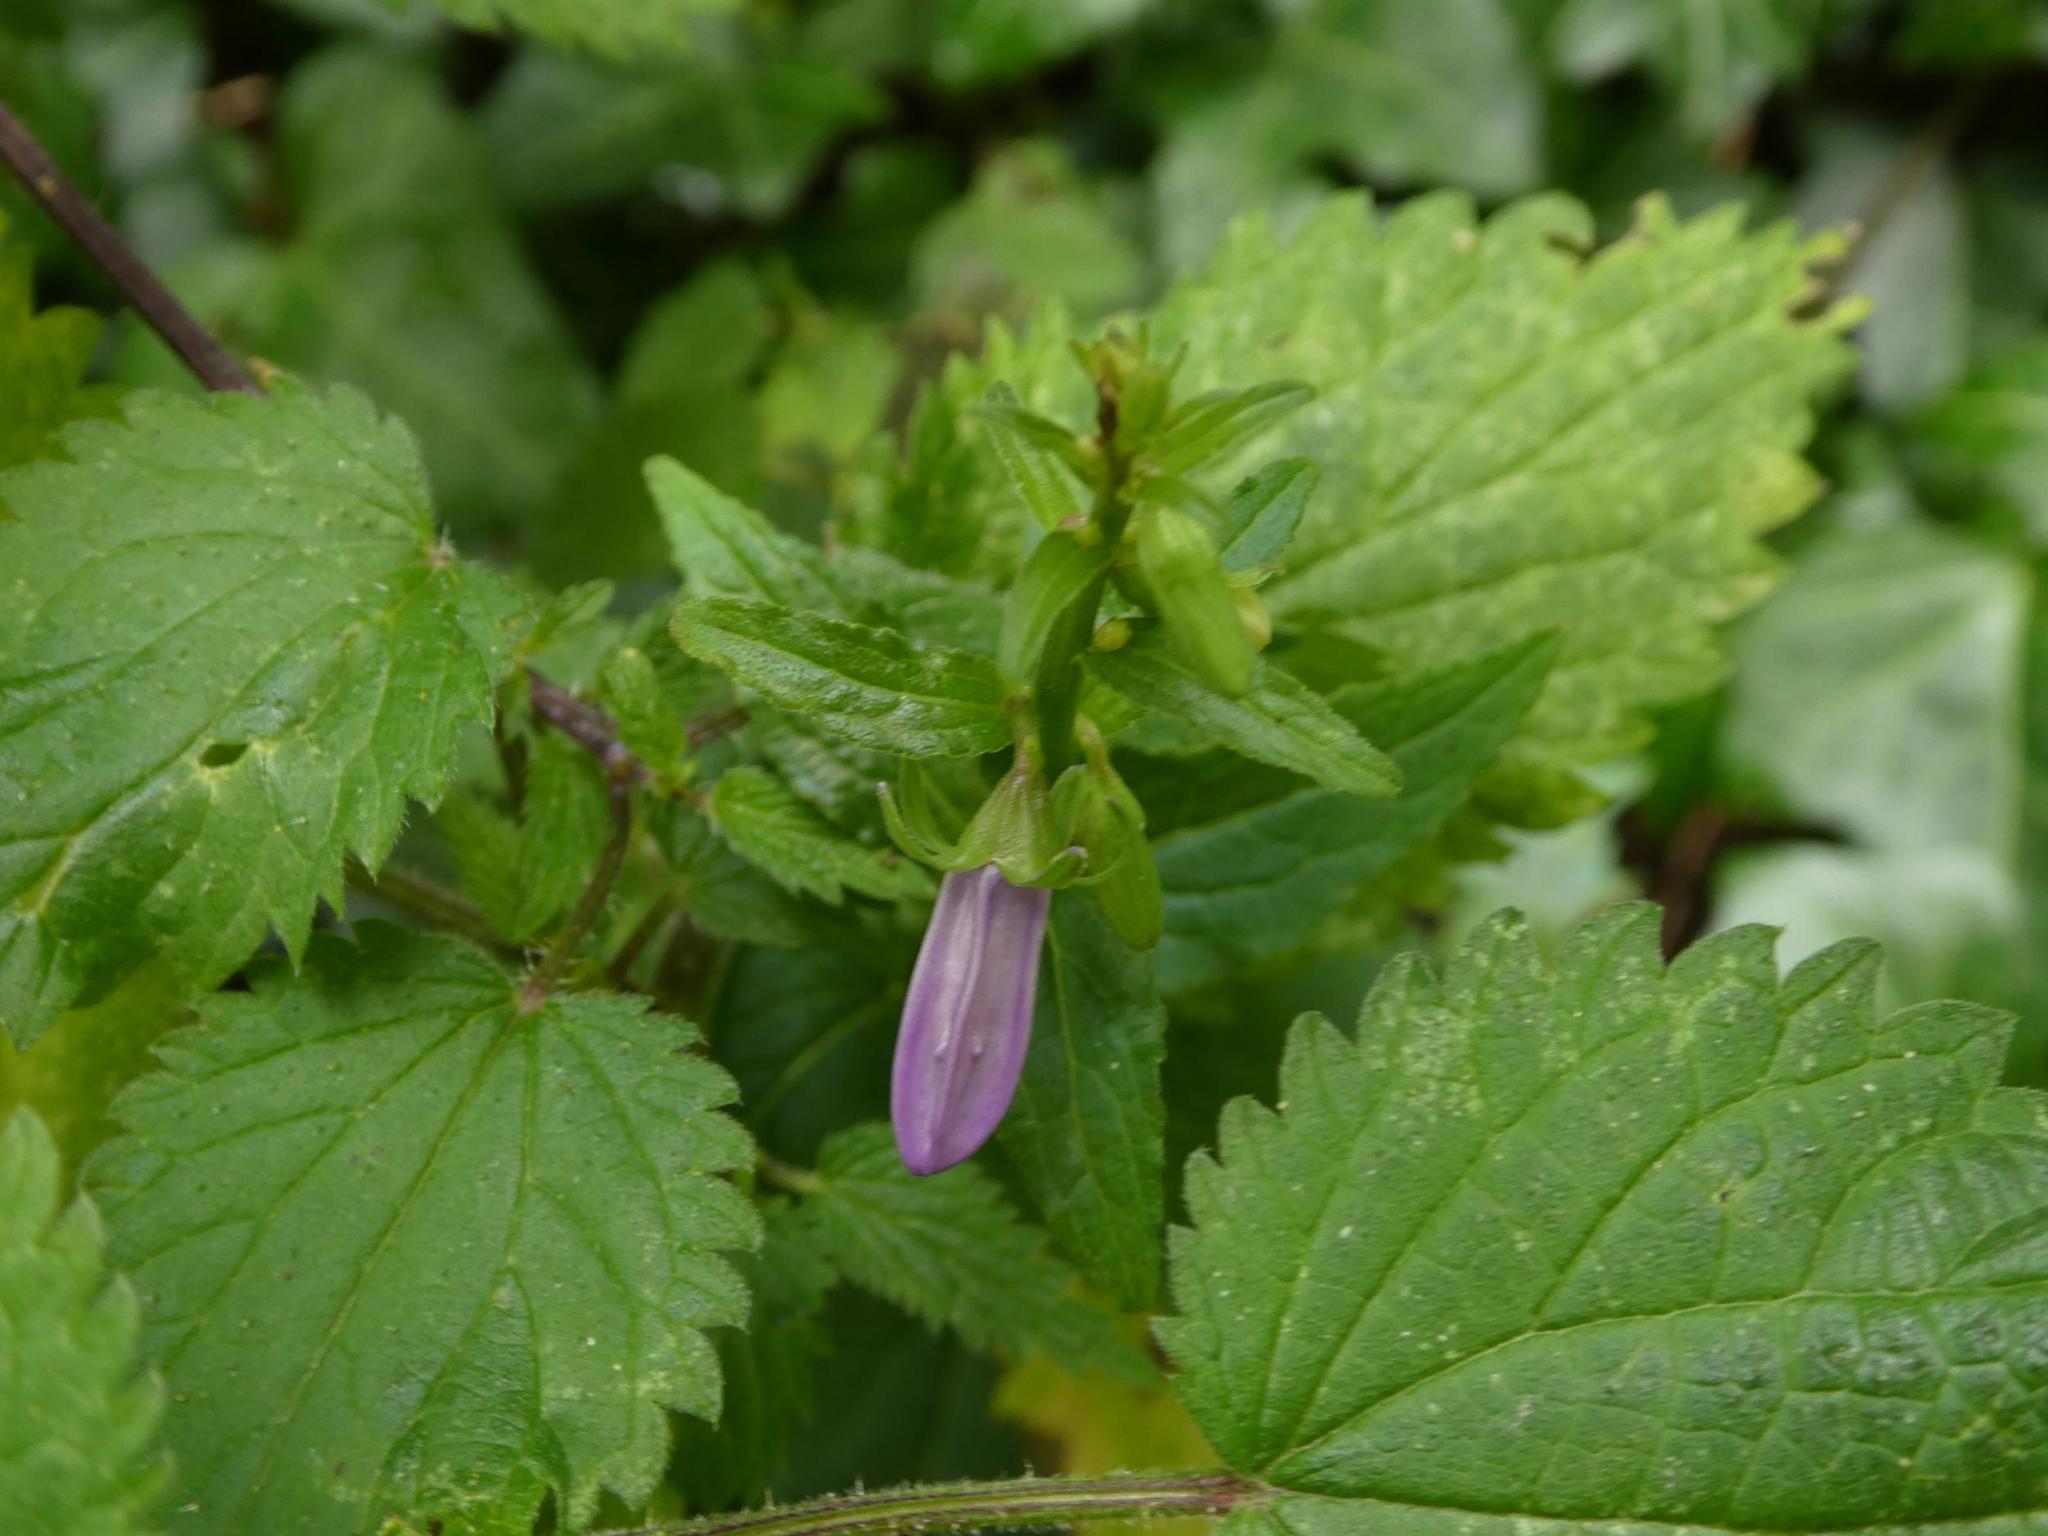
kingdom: Plantae
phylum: Tracheophyta
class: Magnoliopsida
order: Asterales
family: Campanulaceae
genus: Campanula
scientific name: Campanula rapunculoides
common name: Creeping bellflower
